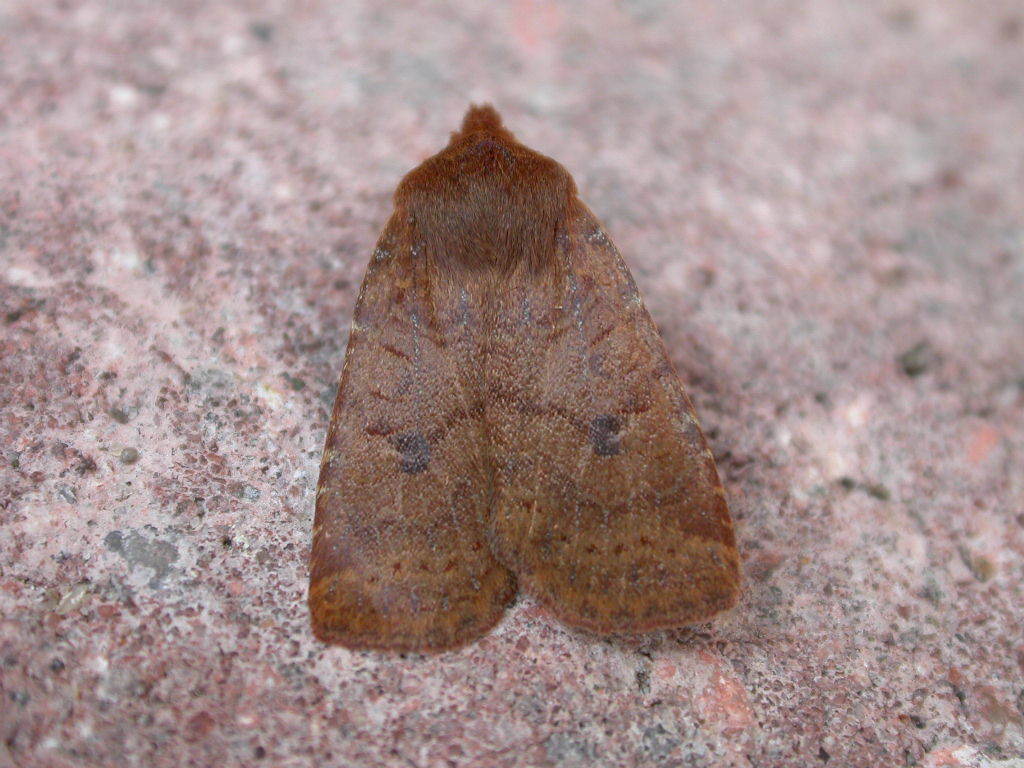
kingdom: Animalia
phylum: Arthropoda
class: Insecta
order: Lepidoptera
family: Noctuidae
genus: Conistra
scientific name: Conistra vaccinii
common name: Chestnut
